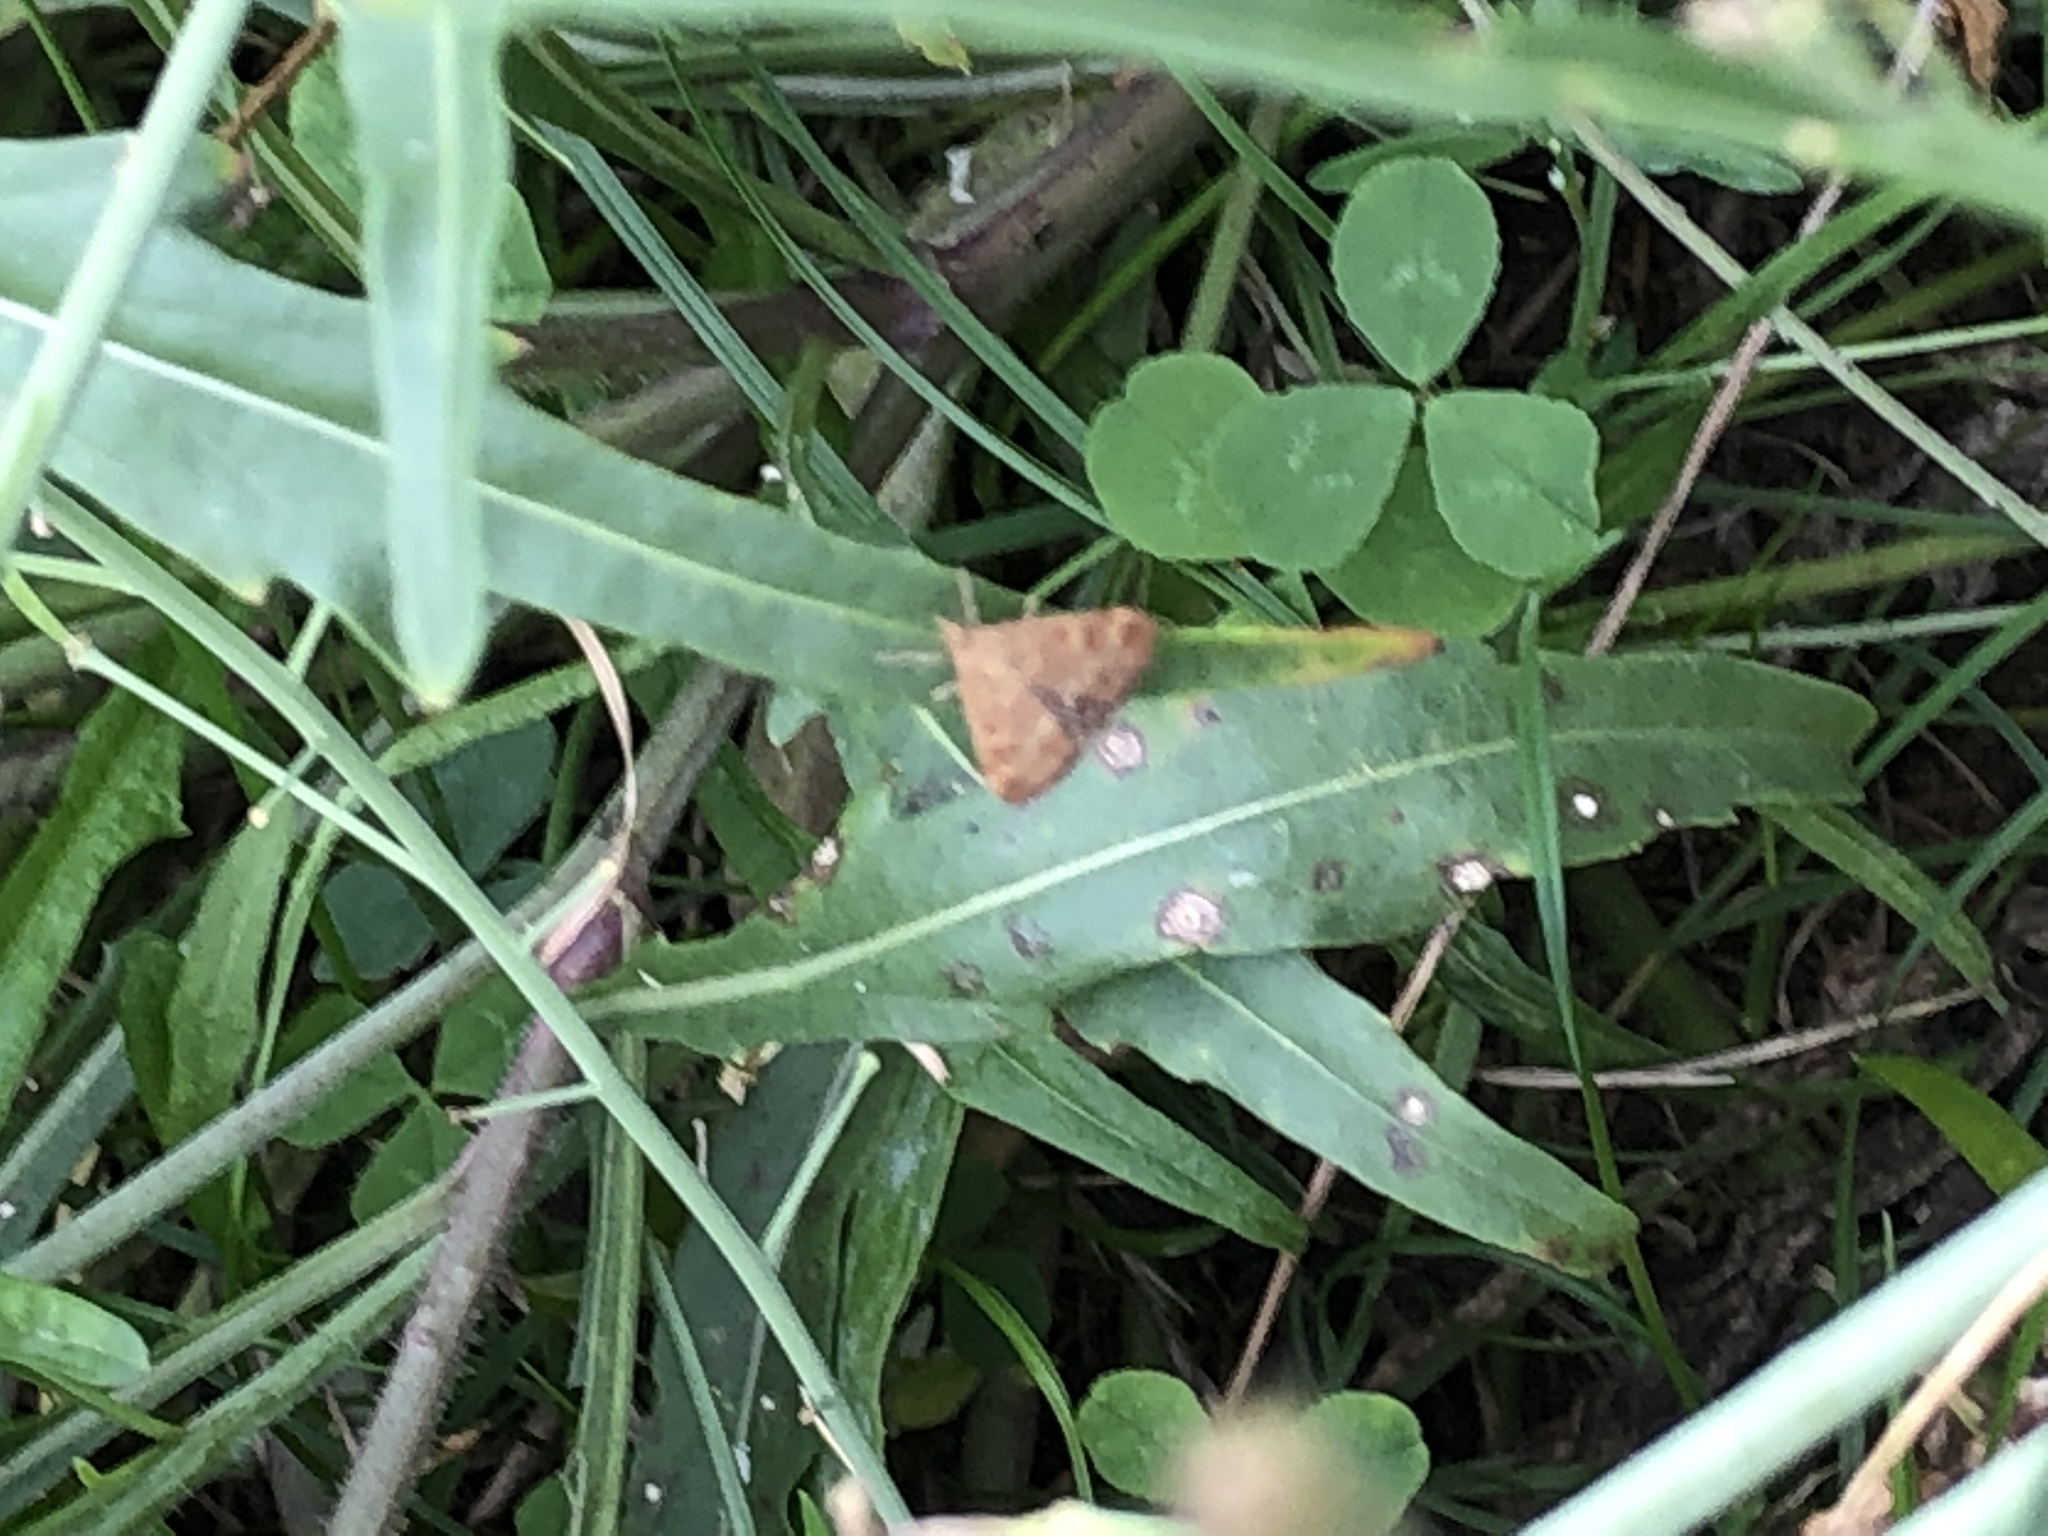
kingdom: Animalia
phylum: Arthropoda
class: Insecta
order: Lepidoptera
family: Crambidae
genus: Pyrausta
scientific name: Pyrausta despicata
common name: Straw-barred pearl
